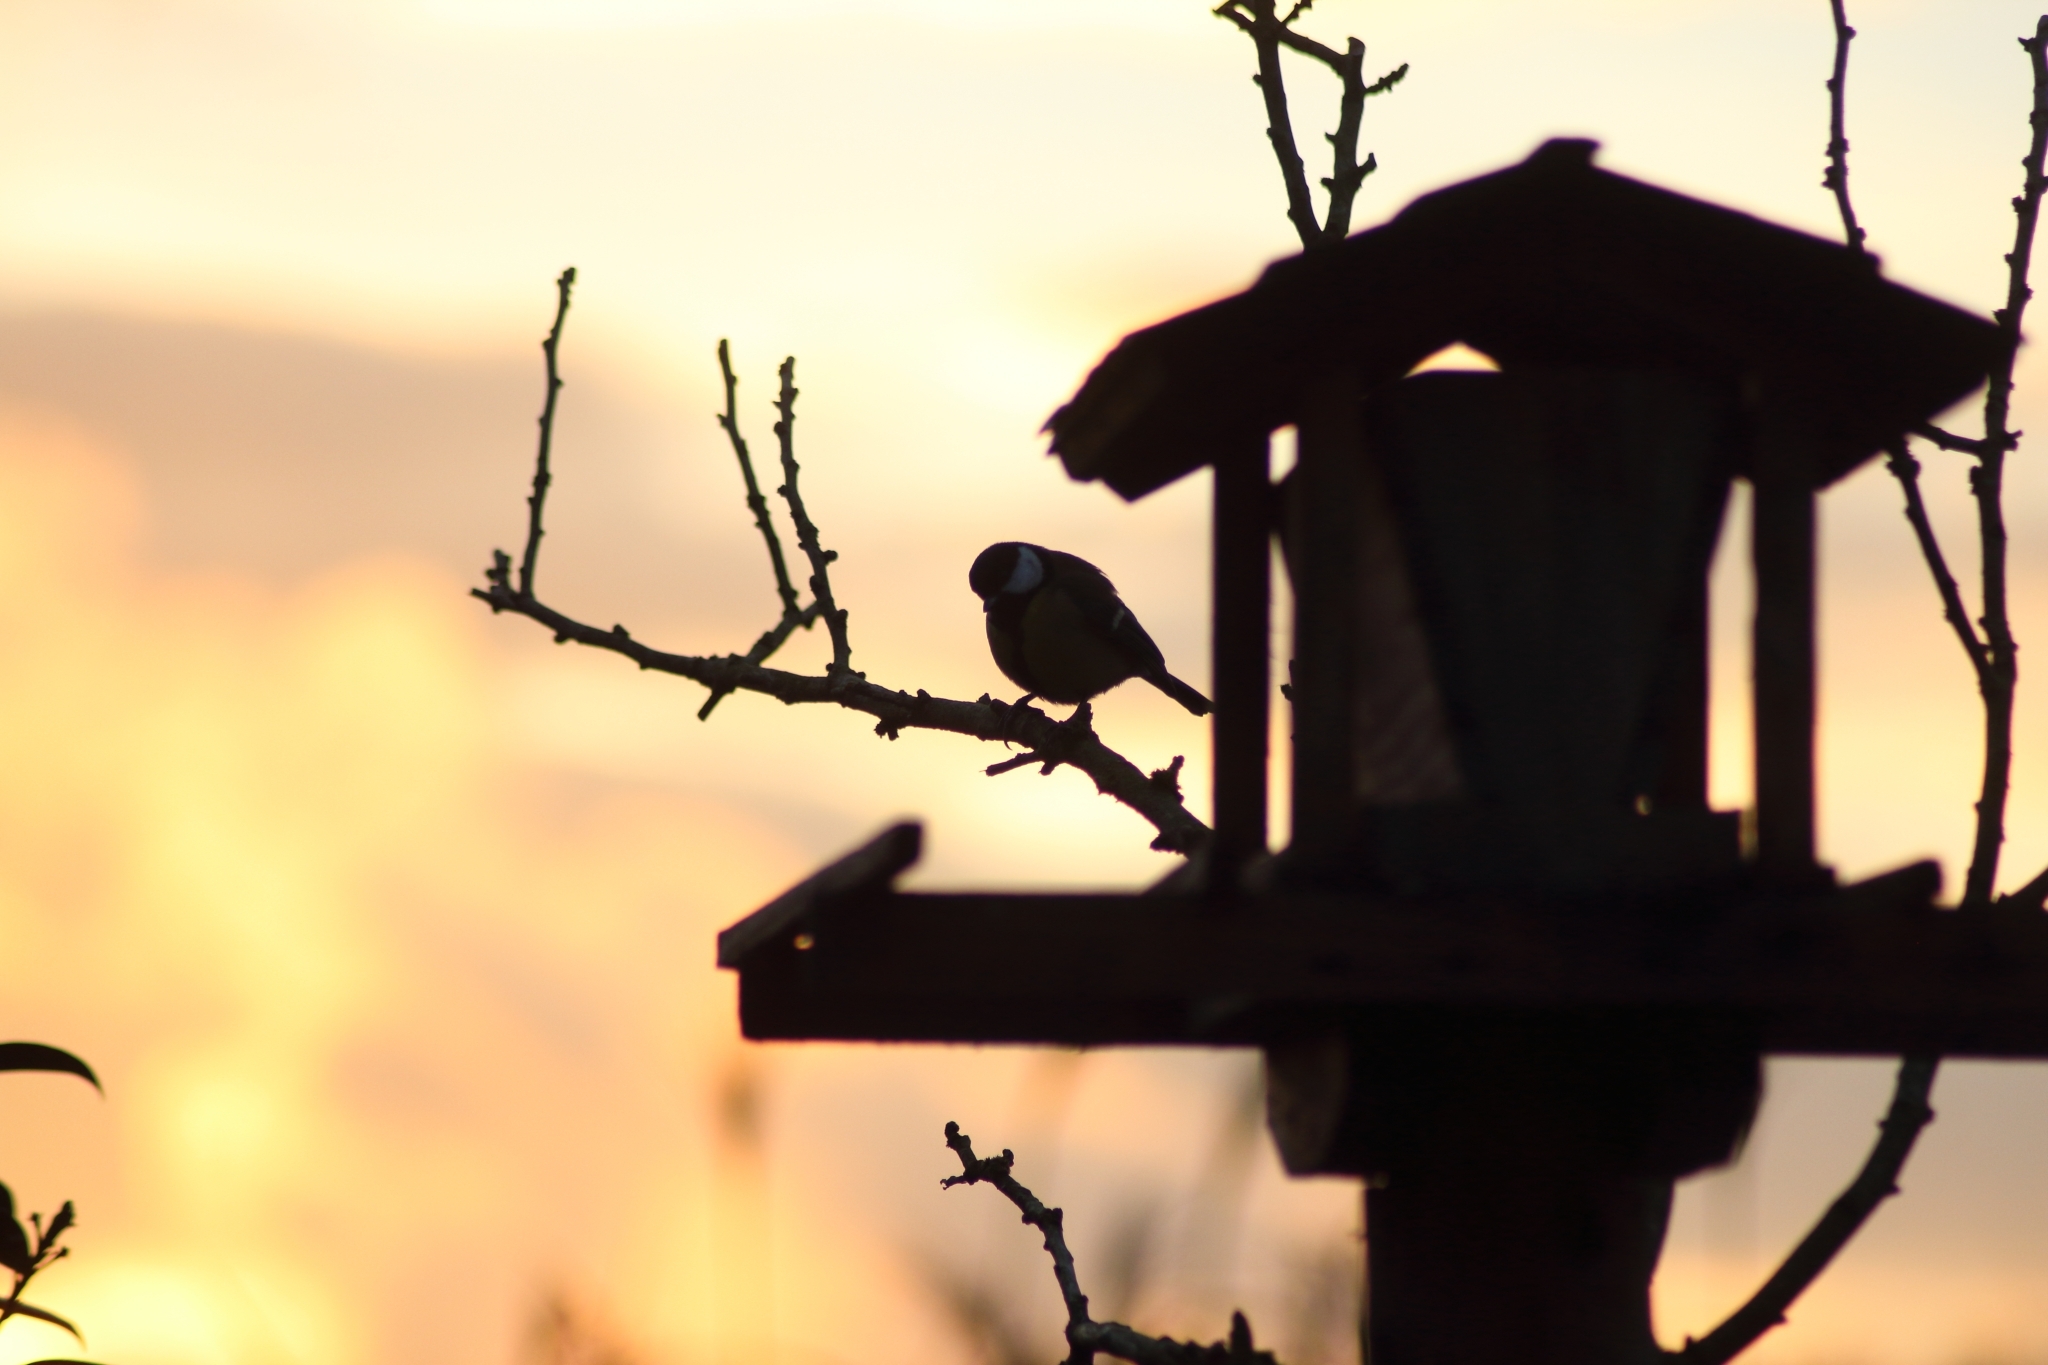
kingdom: Animalia
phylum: Chordata
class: Aves
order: Passeriformes
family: Paridae
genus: Parus
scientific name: Parus major
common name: Great tit
